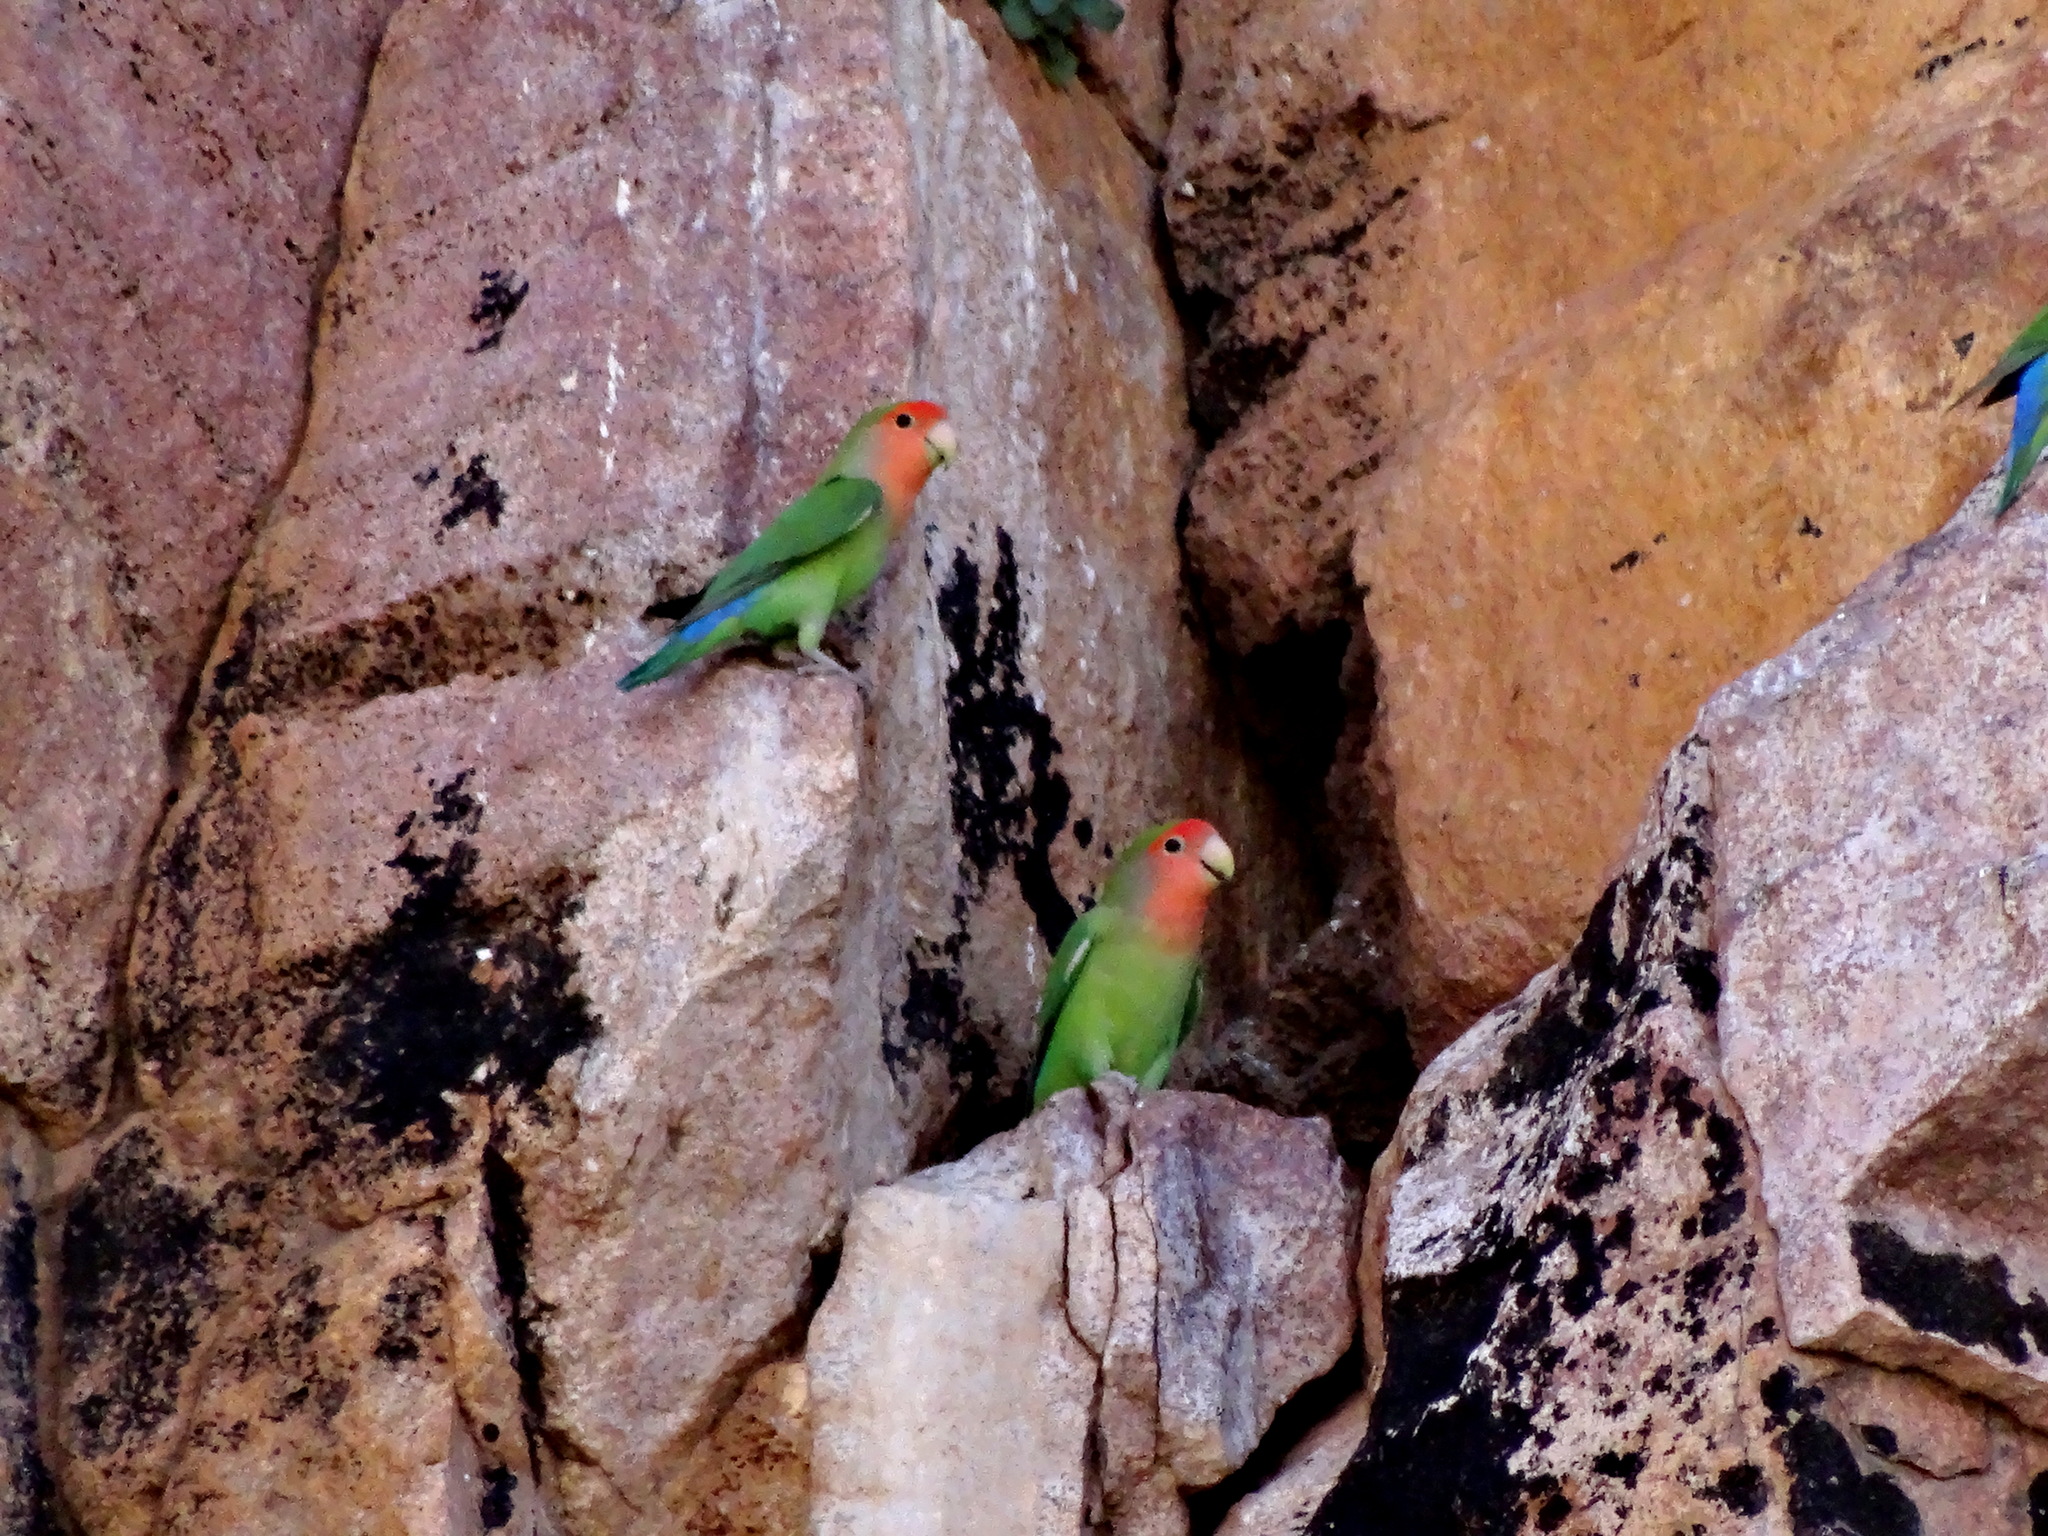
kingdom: Animalia
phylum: Chordata
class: Aves
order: Psittaciformes
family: Psittacidae
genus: Agapornis
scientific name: Agapornis roseicollis
